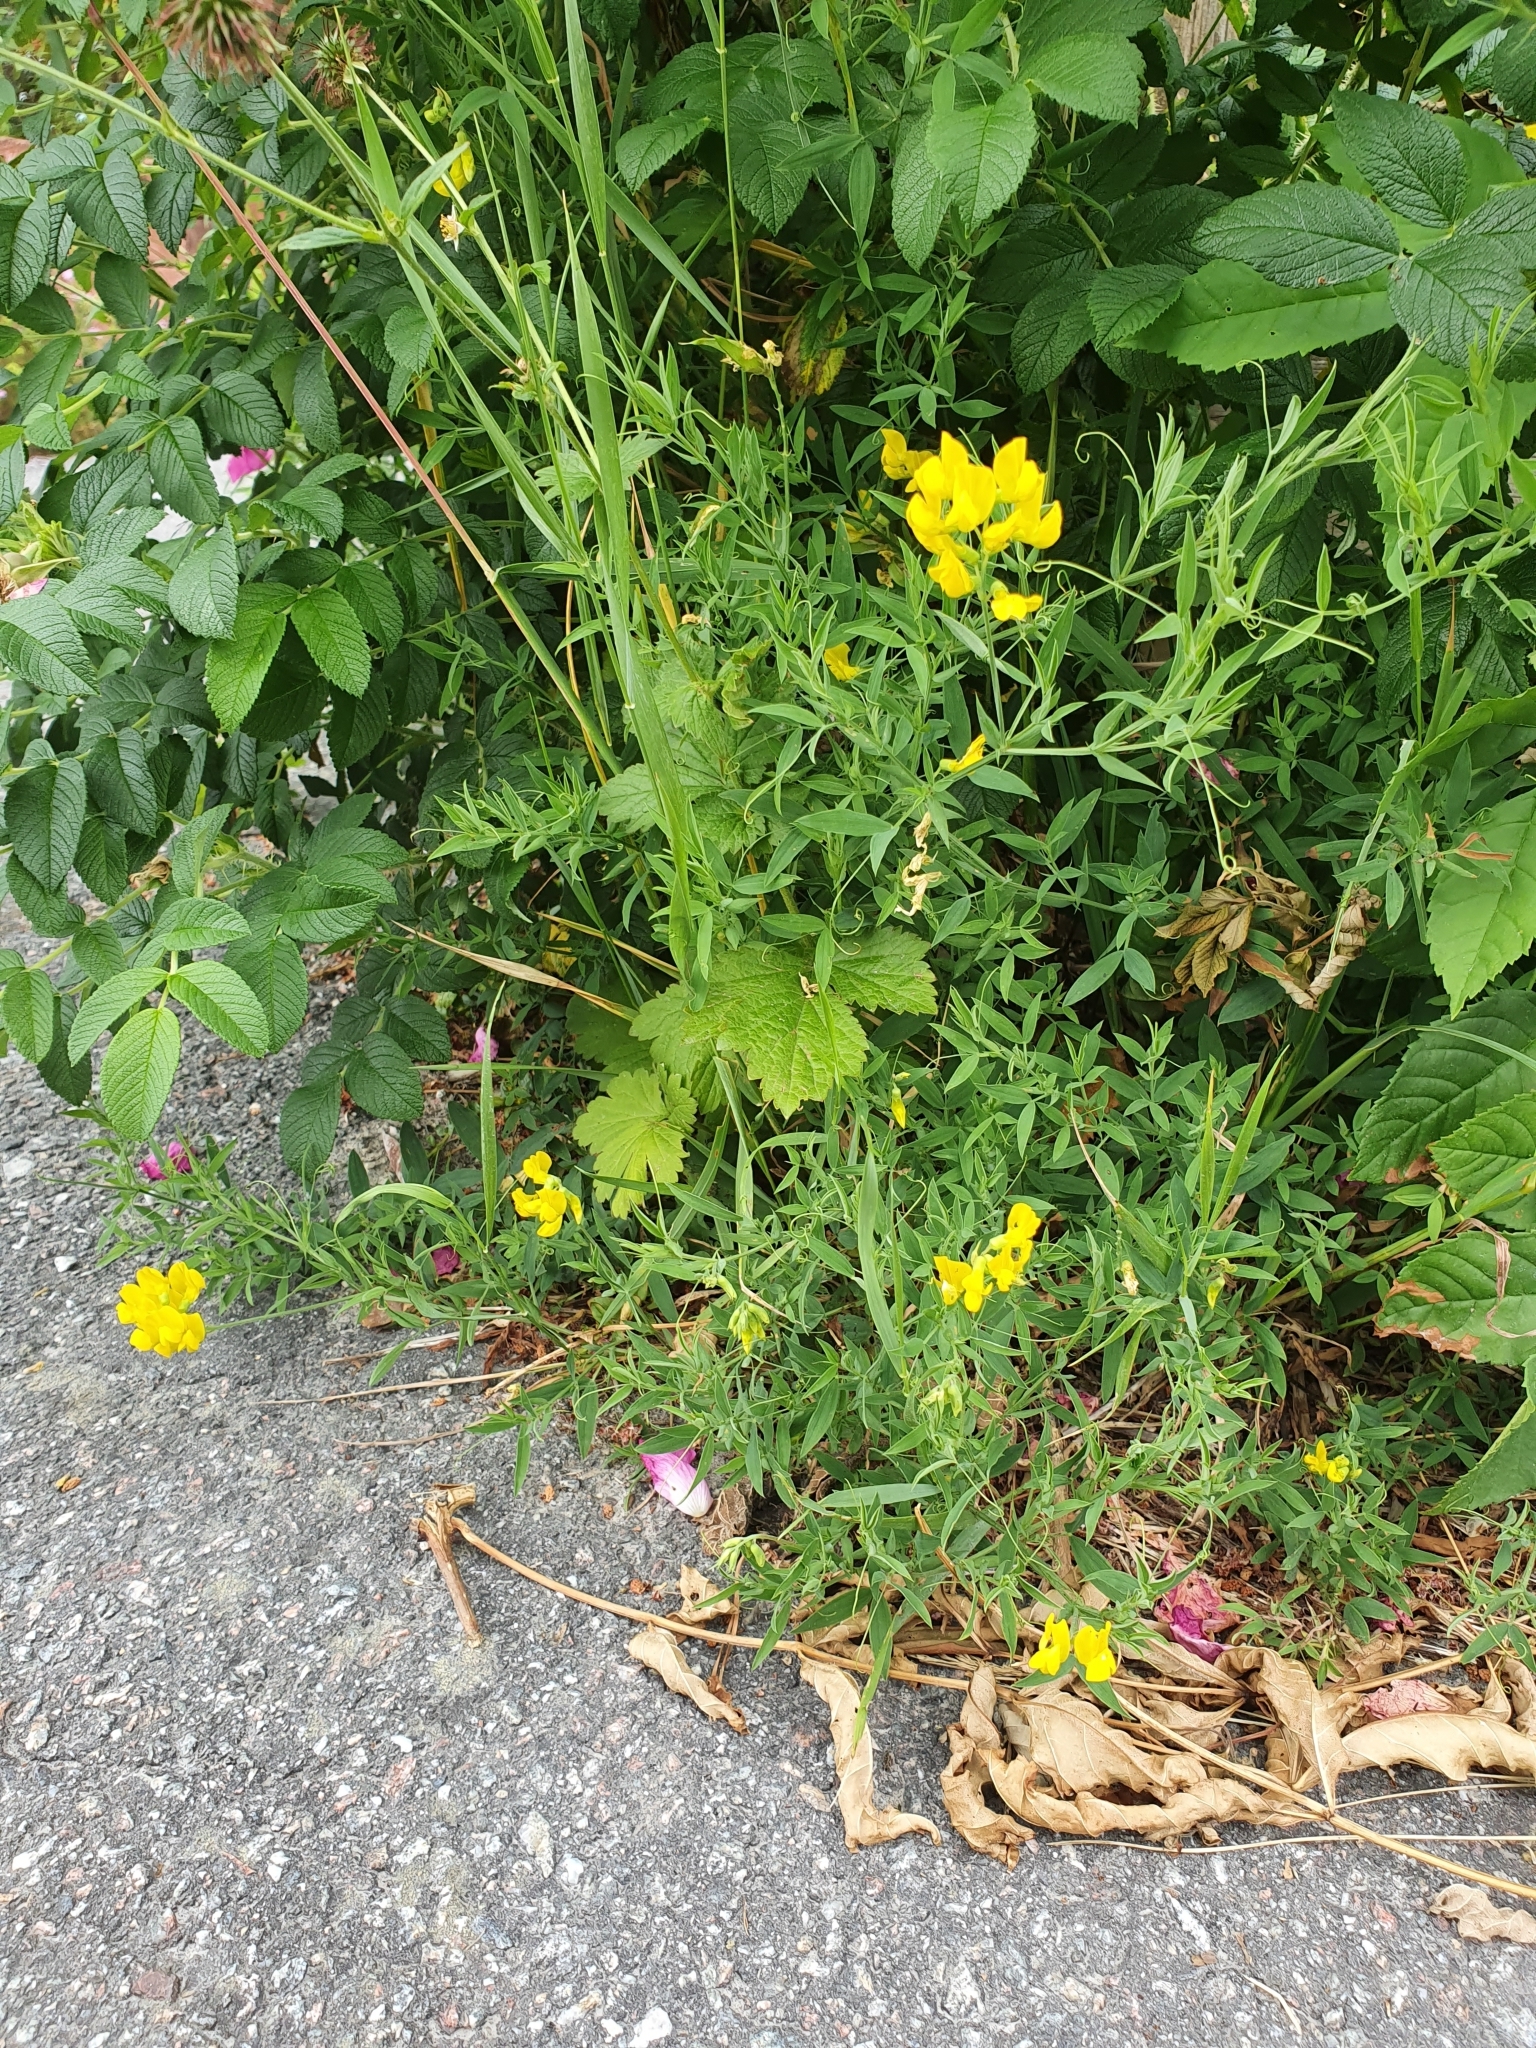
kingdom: Plantae
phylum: Tracheophyta
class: Magnoliopsida
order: Fabales
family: Fabaceae
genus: Lathyrus
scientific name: Lathyrus pratensis
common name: Meadow vetchling
